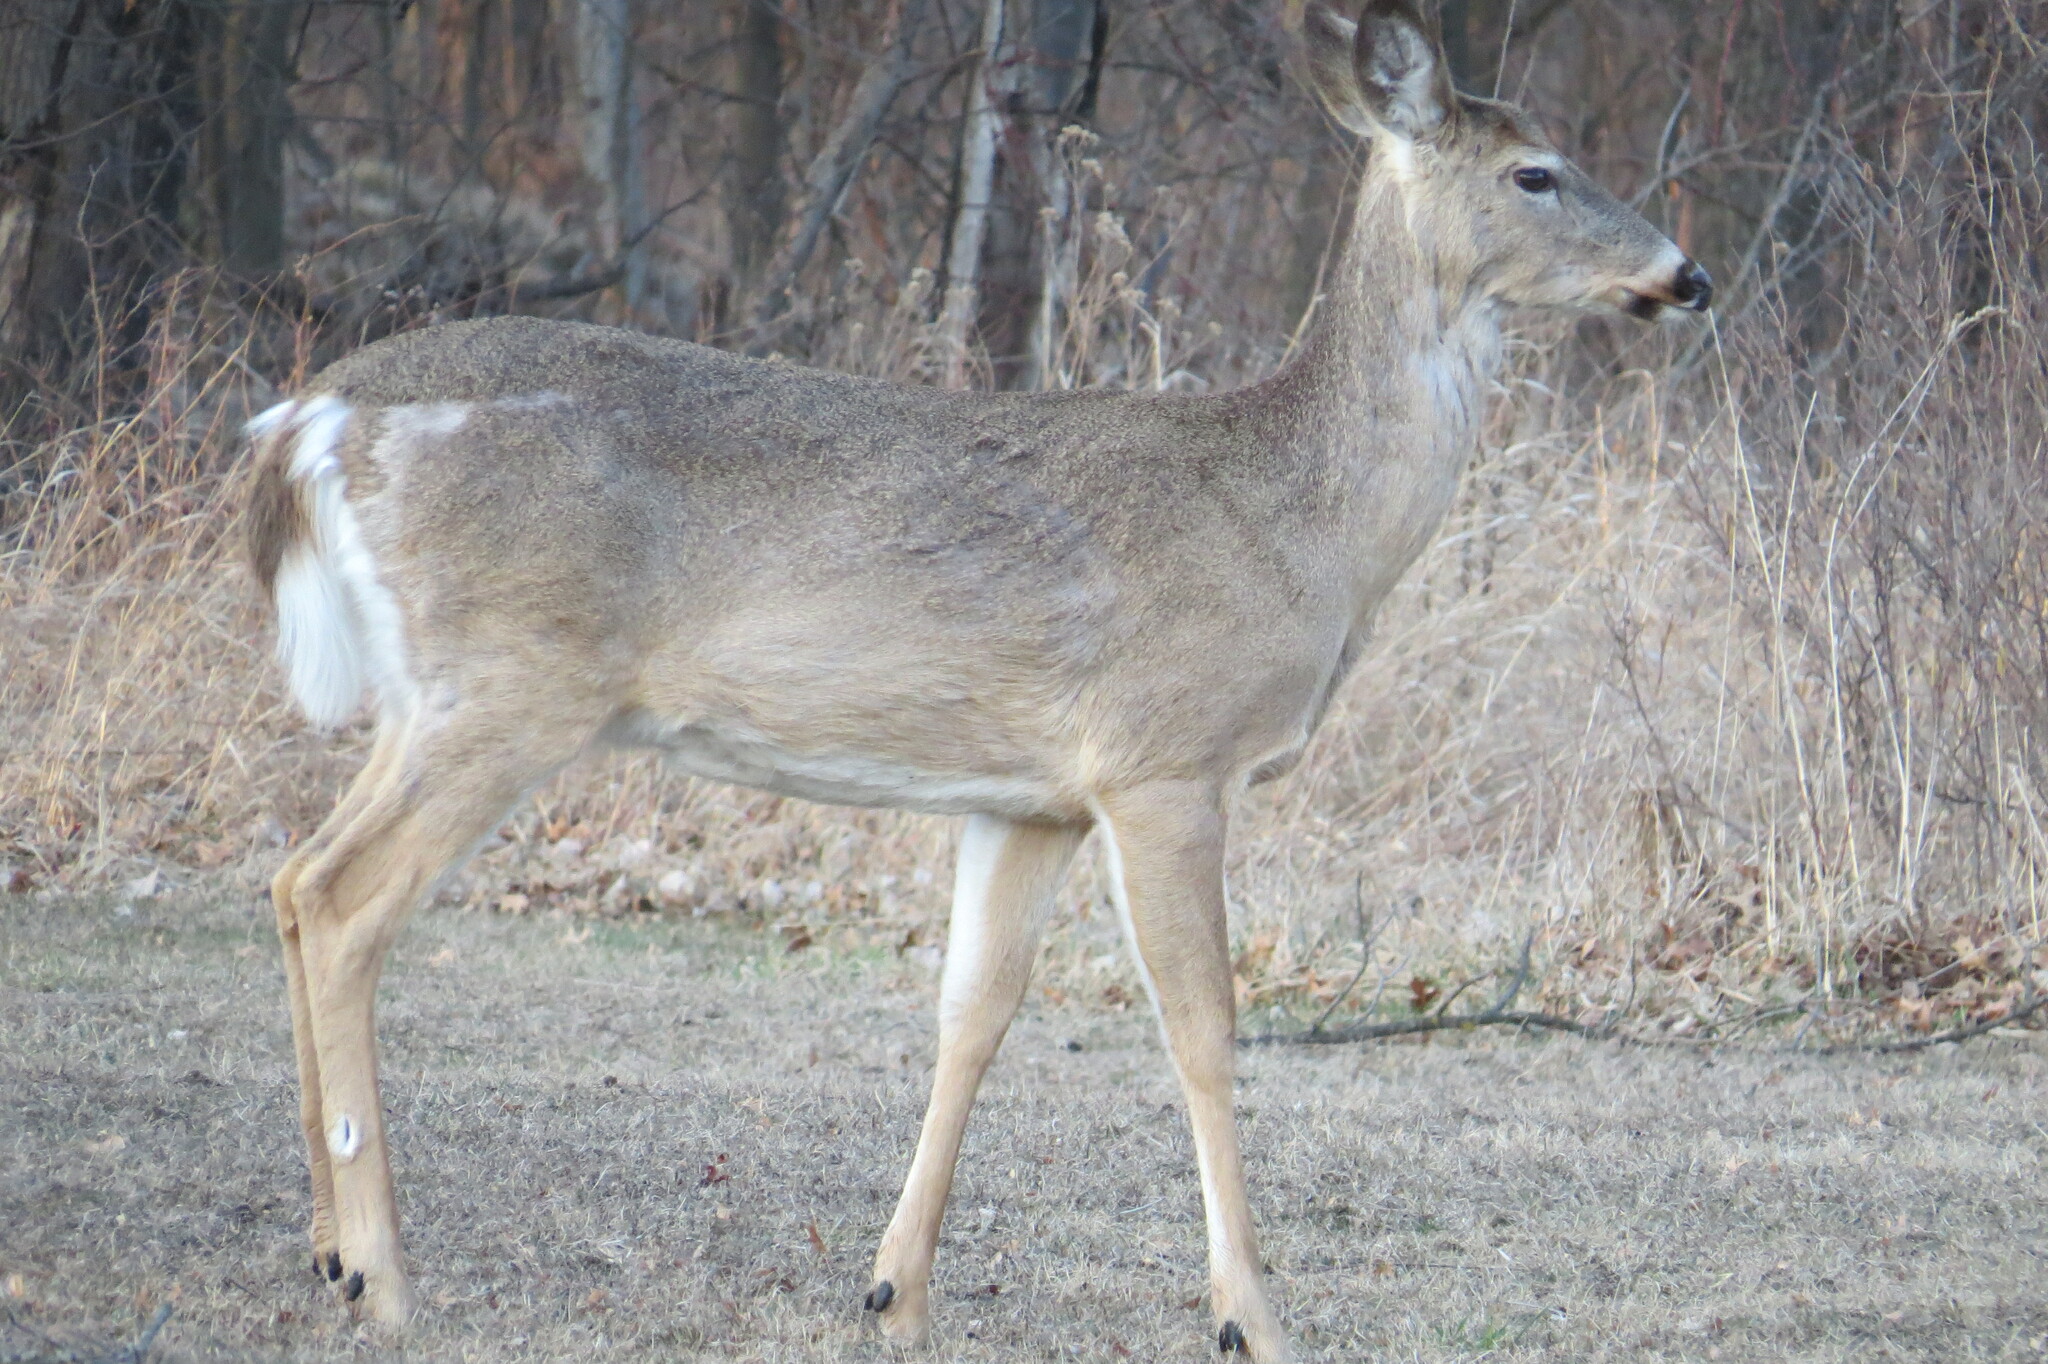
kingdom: Animalia
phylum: Chordata
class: Mammalia
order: Artiodactyla
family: Cervidae
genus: Odocoileus
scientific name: Odocoileus virginianus
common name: White-tailed deer
